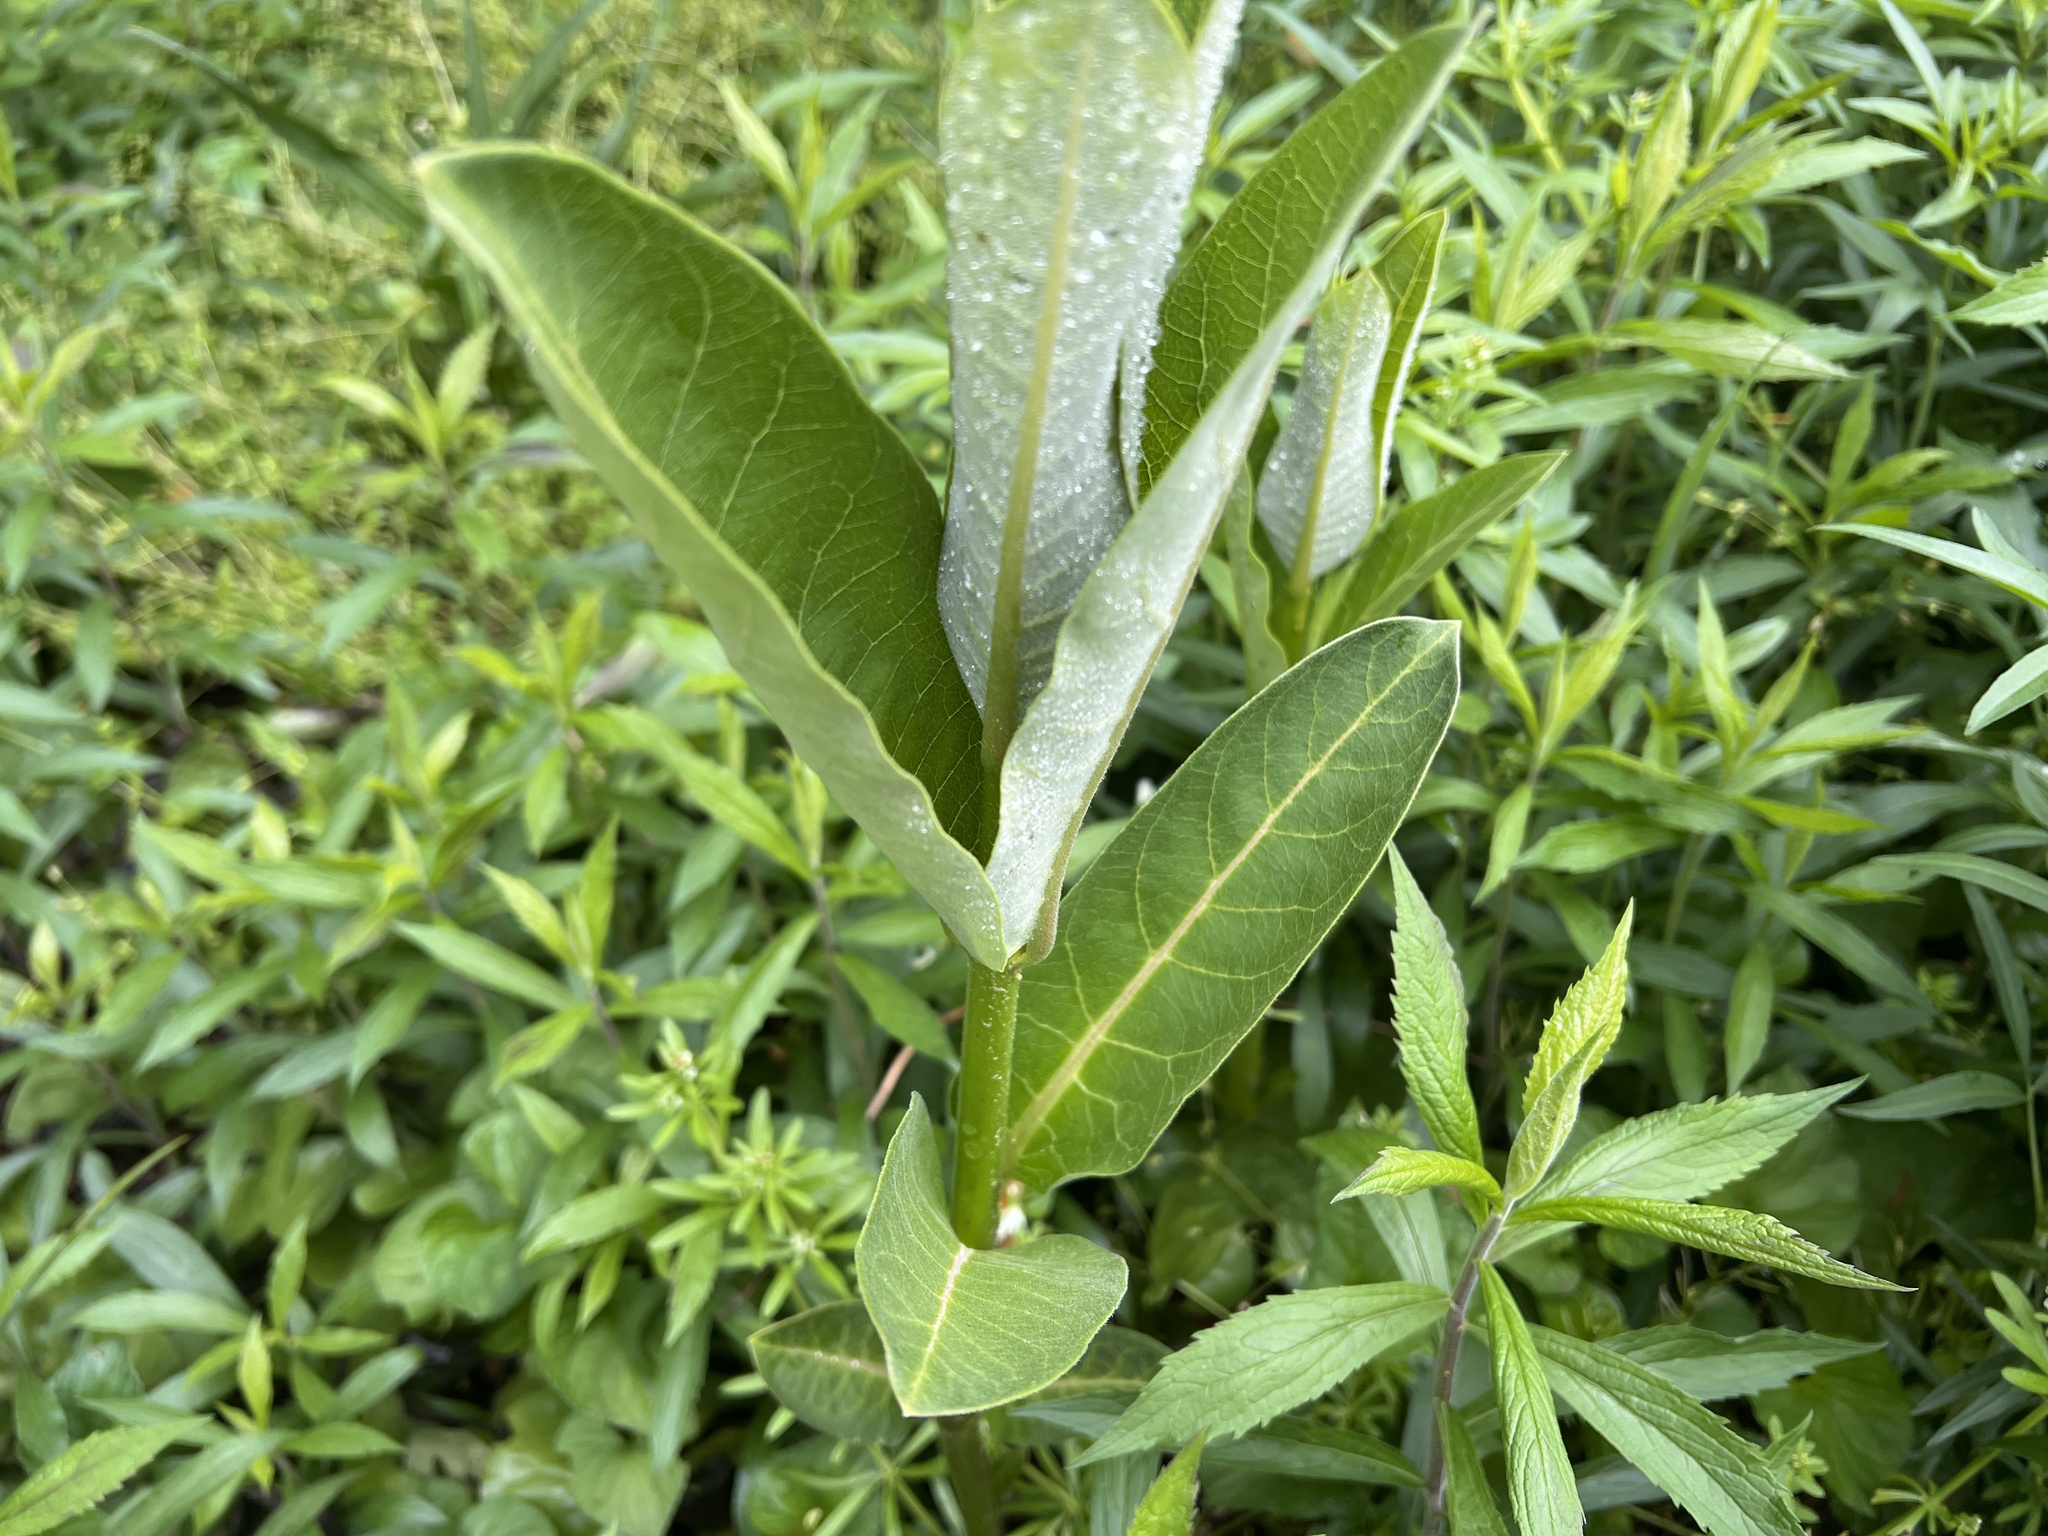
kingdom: Plantae
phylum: Tracheophyta
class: Magnoliopsida
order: Gentianales
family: Apocynaceae
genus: Asclepias
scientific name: Asclepias syriaca
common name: Common milkweed
